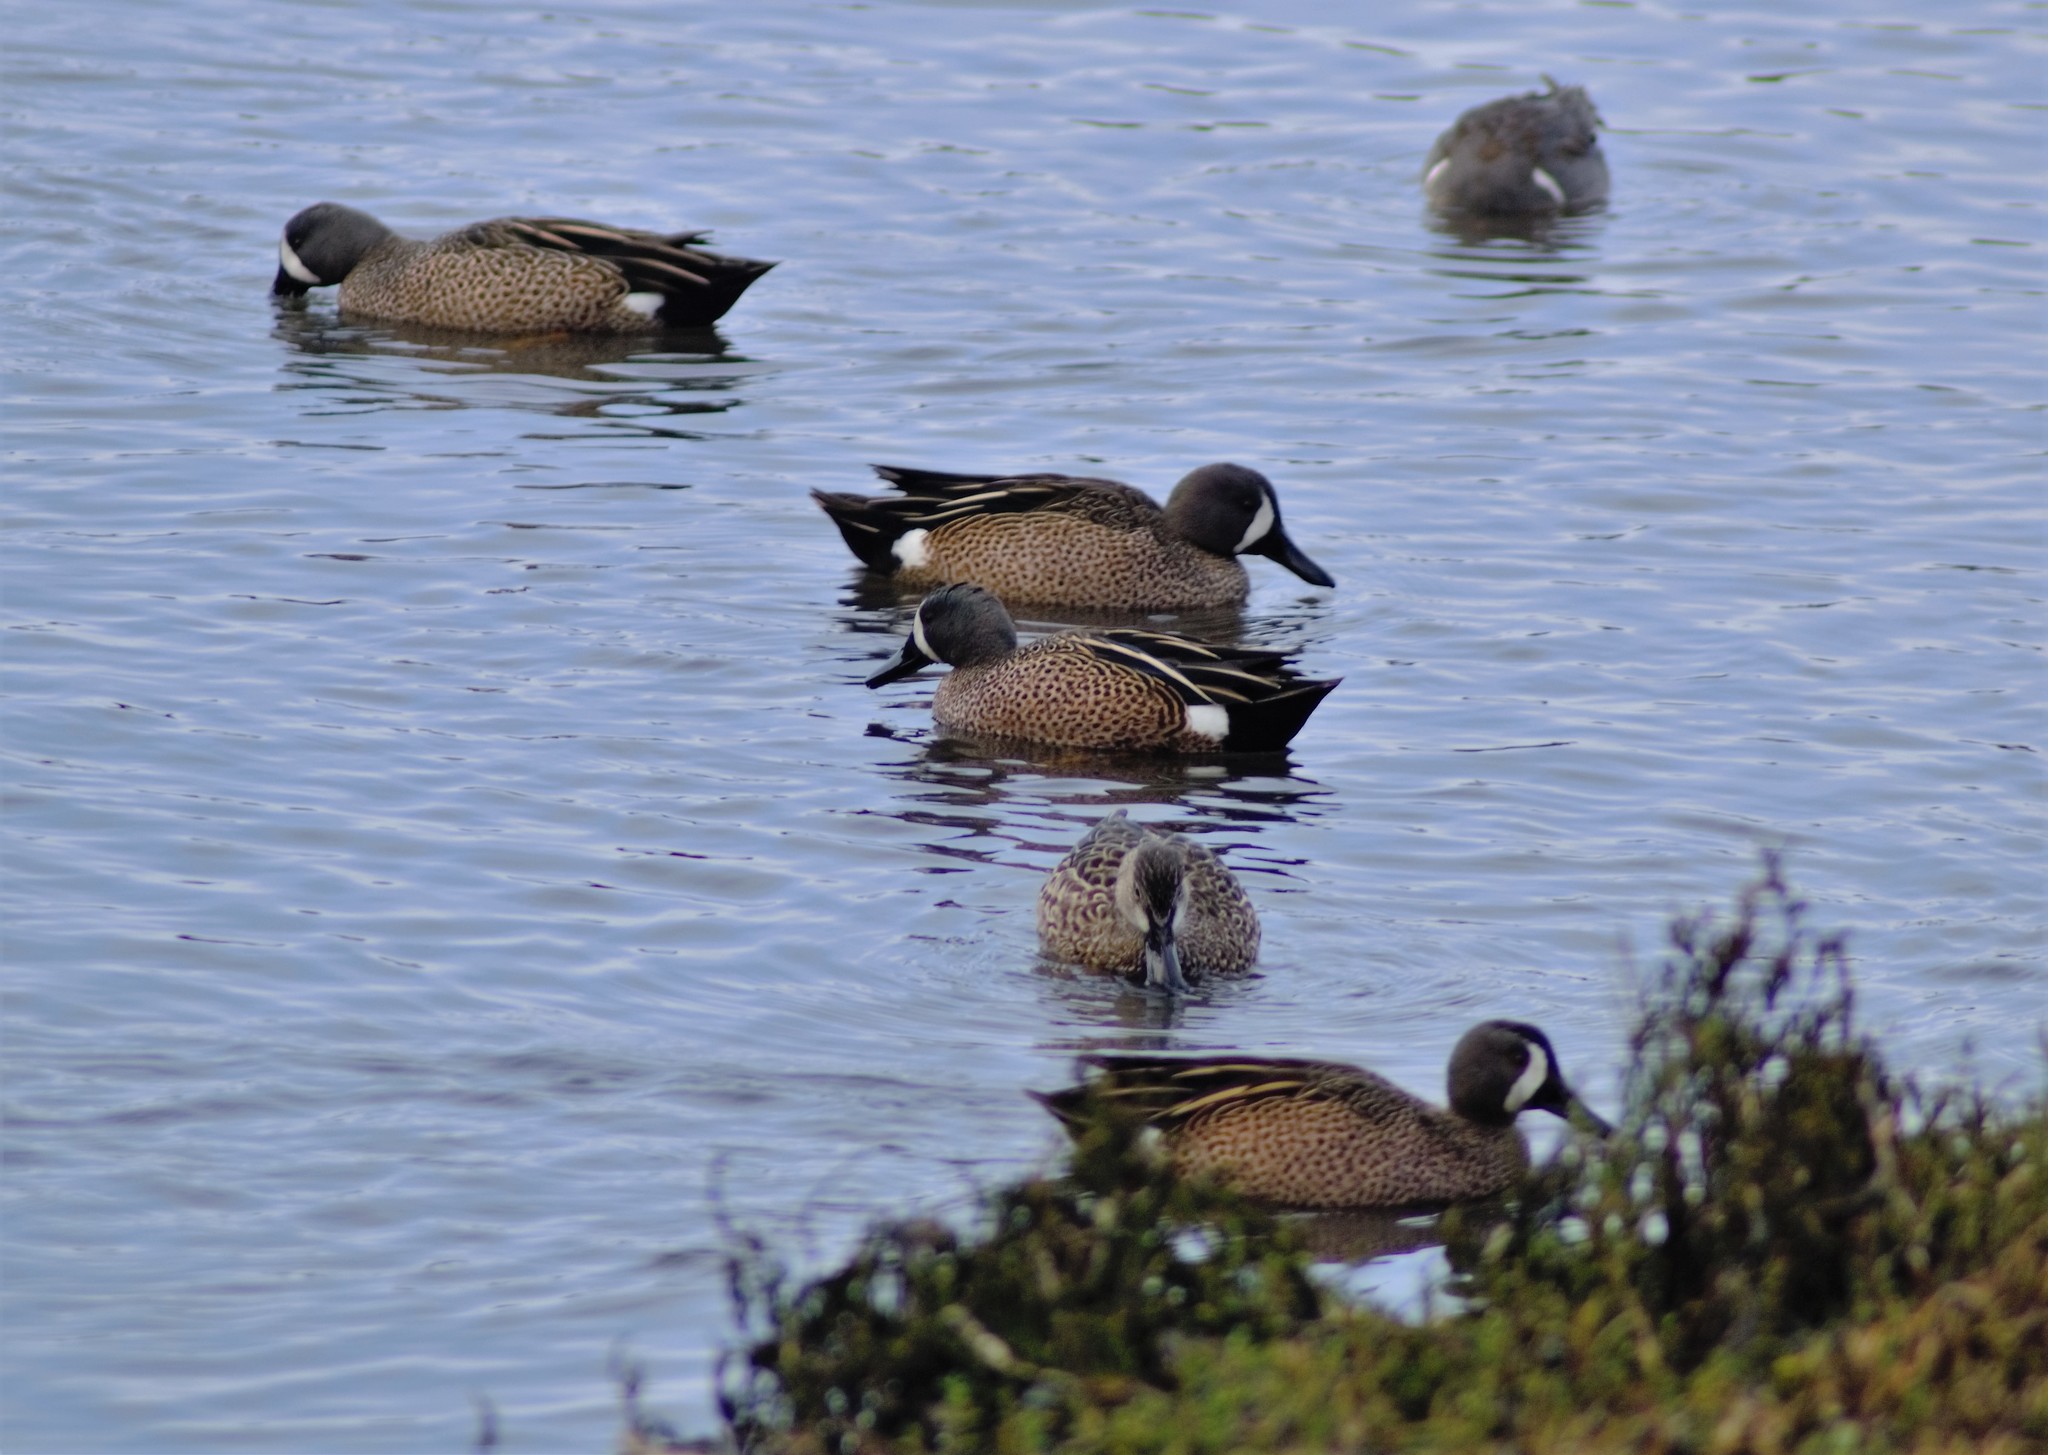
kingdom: Animalia
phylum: Chordata
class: Aves
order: Anseriformes
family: Anatidae
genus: Spatula
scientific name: Spatula discors
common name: Blue-winged teal
